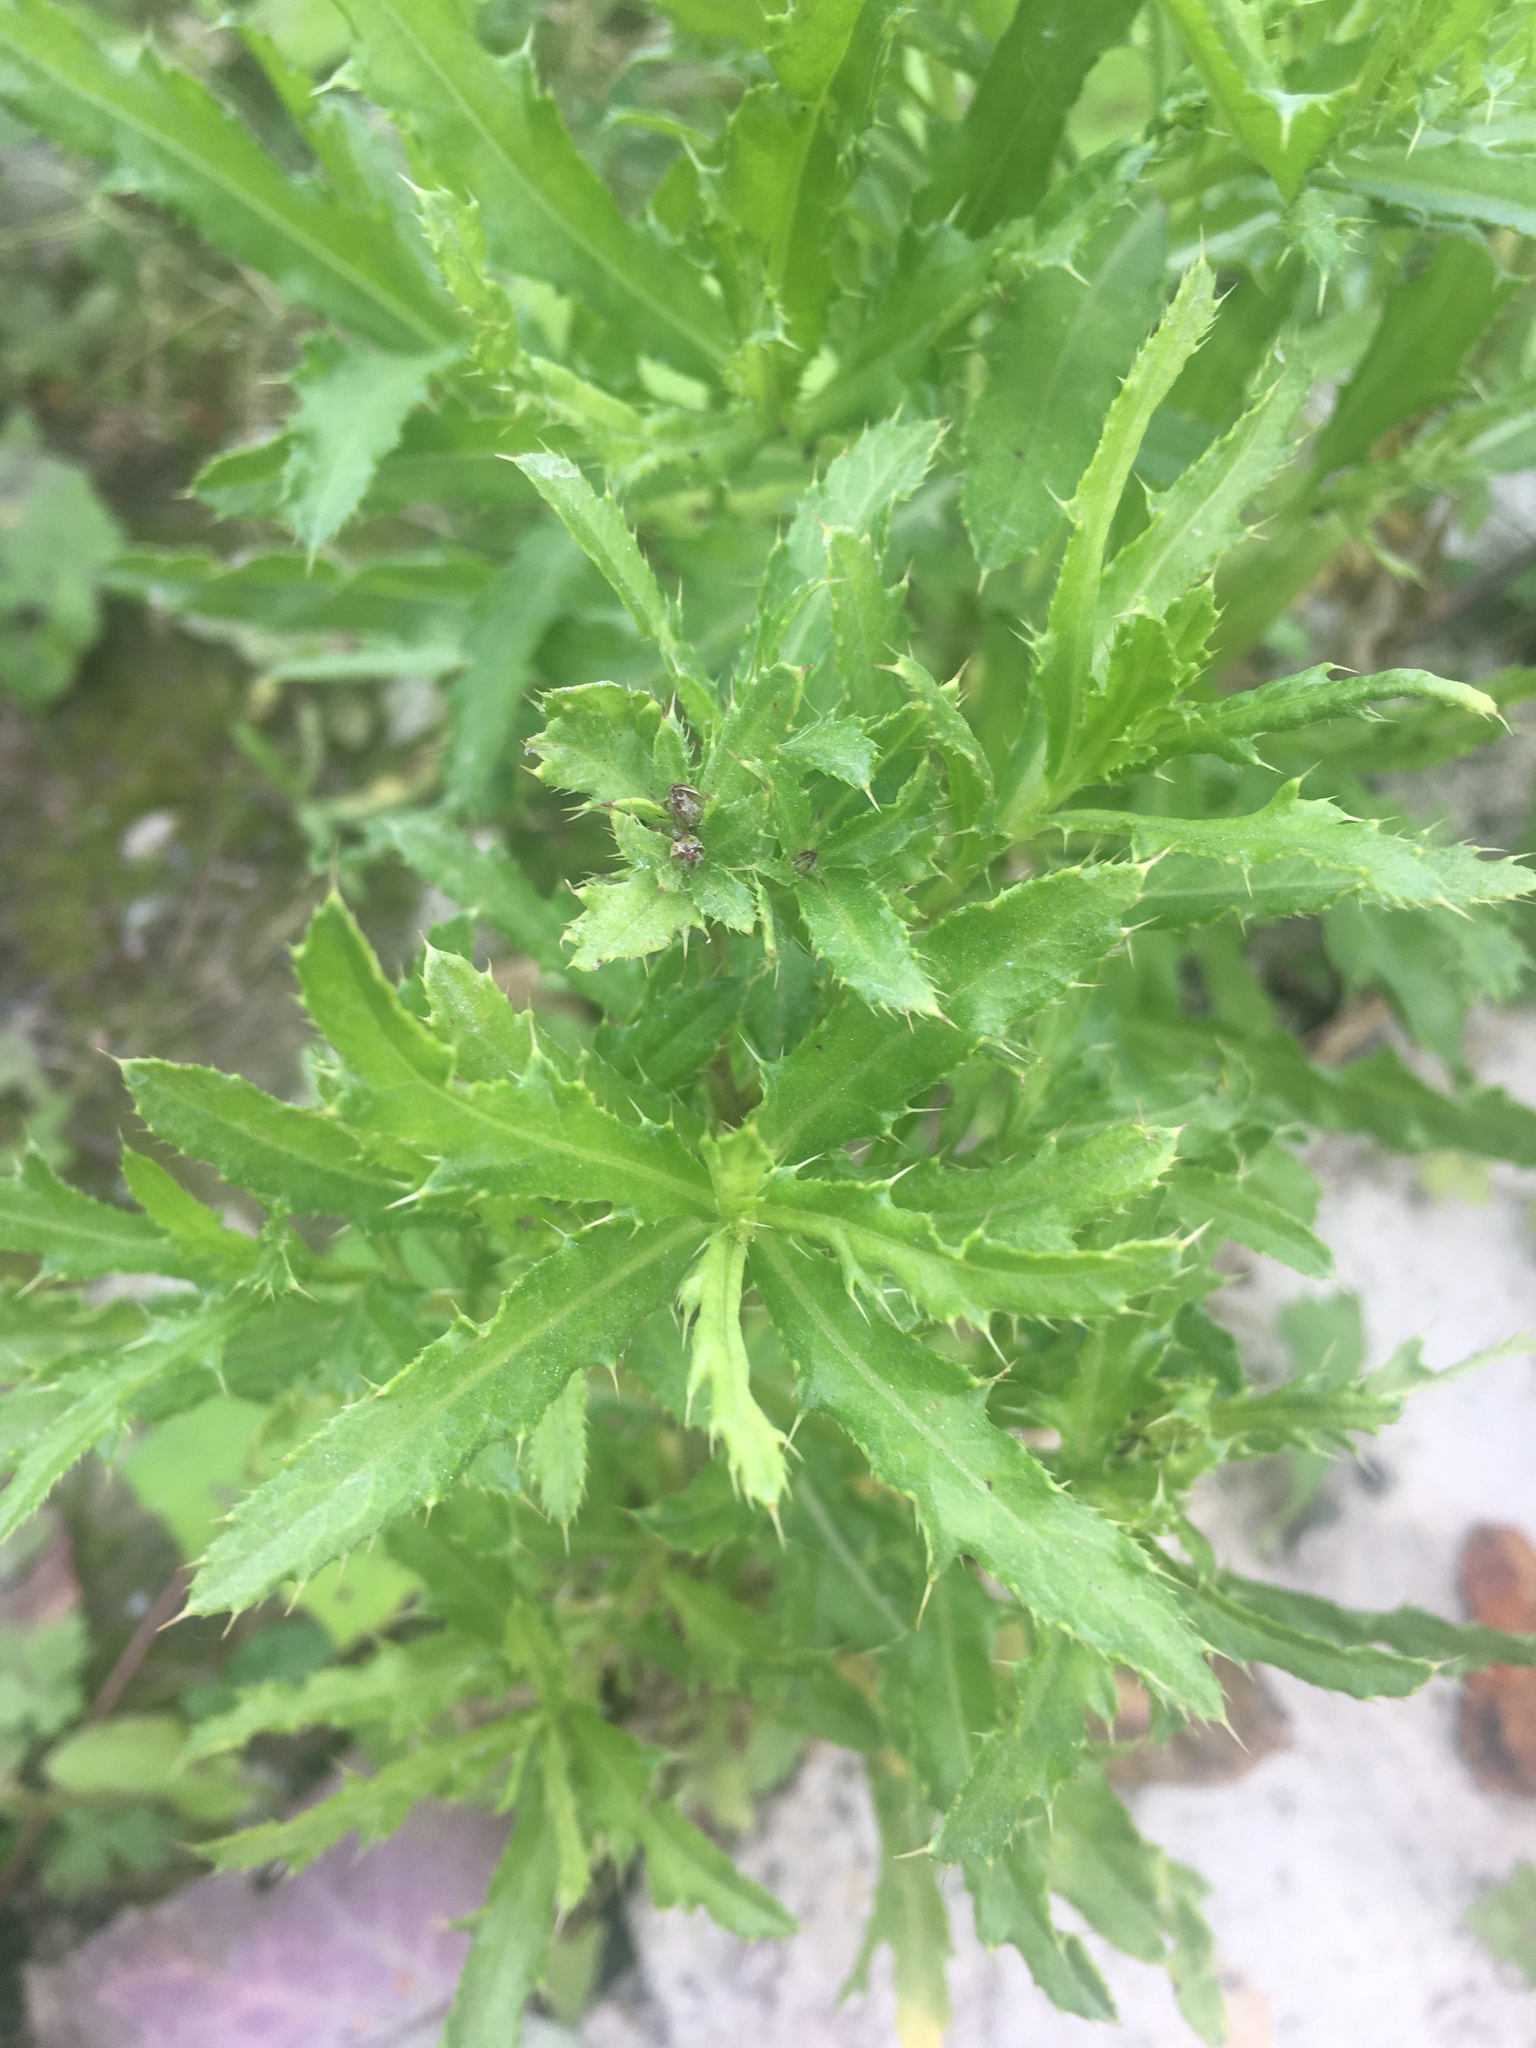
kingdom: Plantae
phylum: Tracheophyta
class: Magnoliopsida
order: Asterales
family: Asteraceae
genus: Cirsium
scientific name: Cirsium arvense
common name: Creeping thistle
